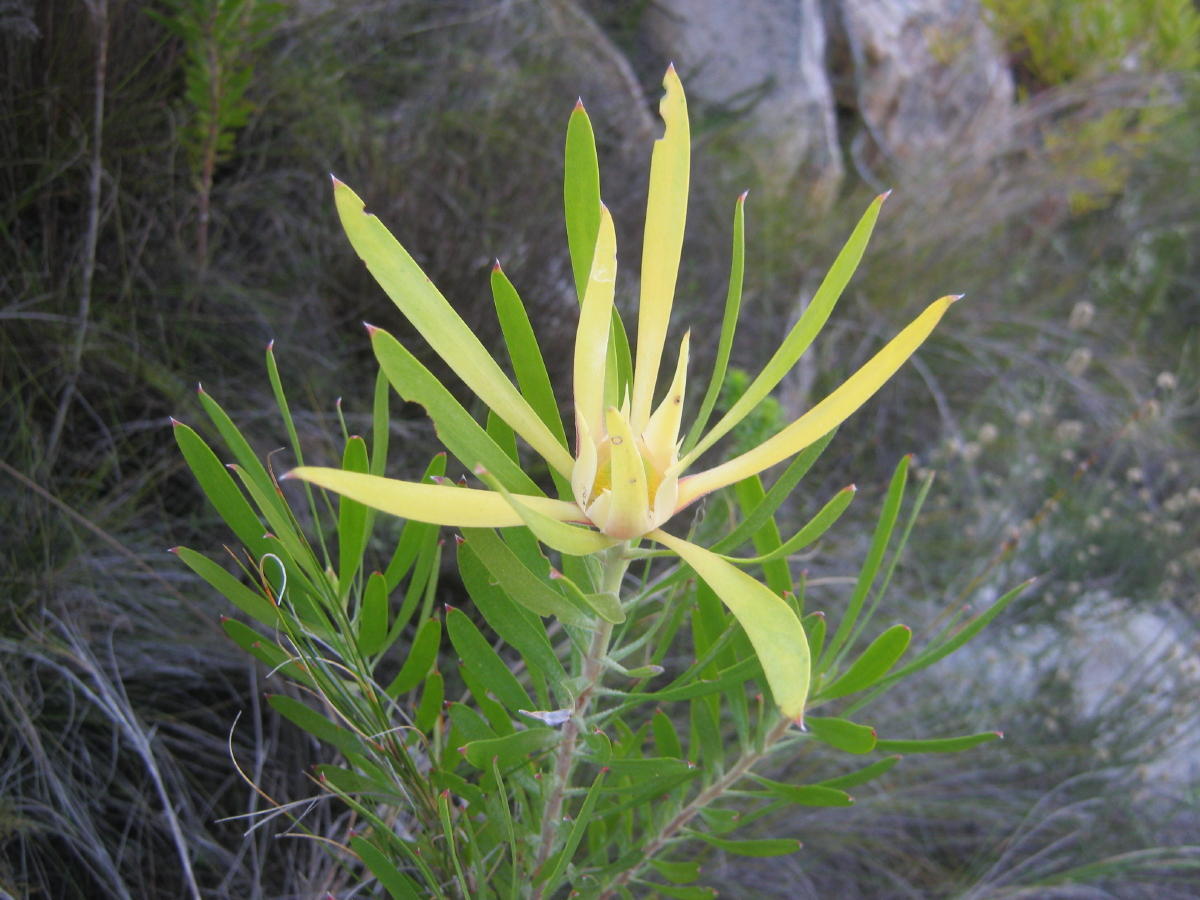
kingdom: Plantae
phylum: Tracheophyta
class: Magnoliopsida
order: Proteales
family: Proteaceae
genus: Leucadendron
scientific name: Leucadendron eucalyptifolium
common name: Gum-leaved conebush
